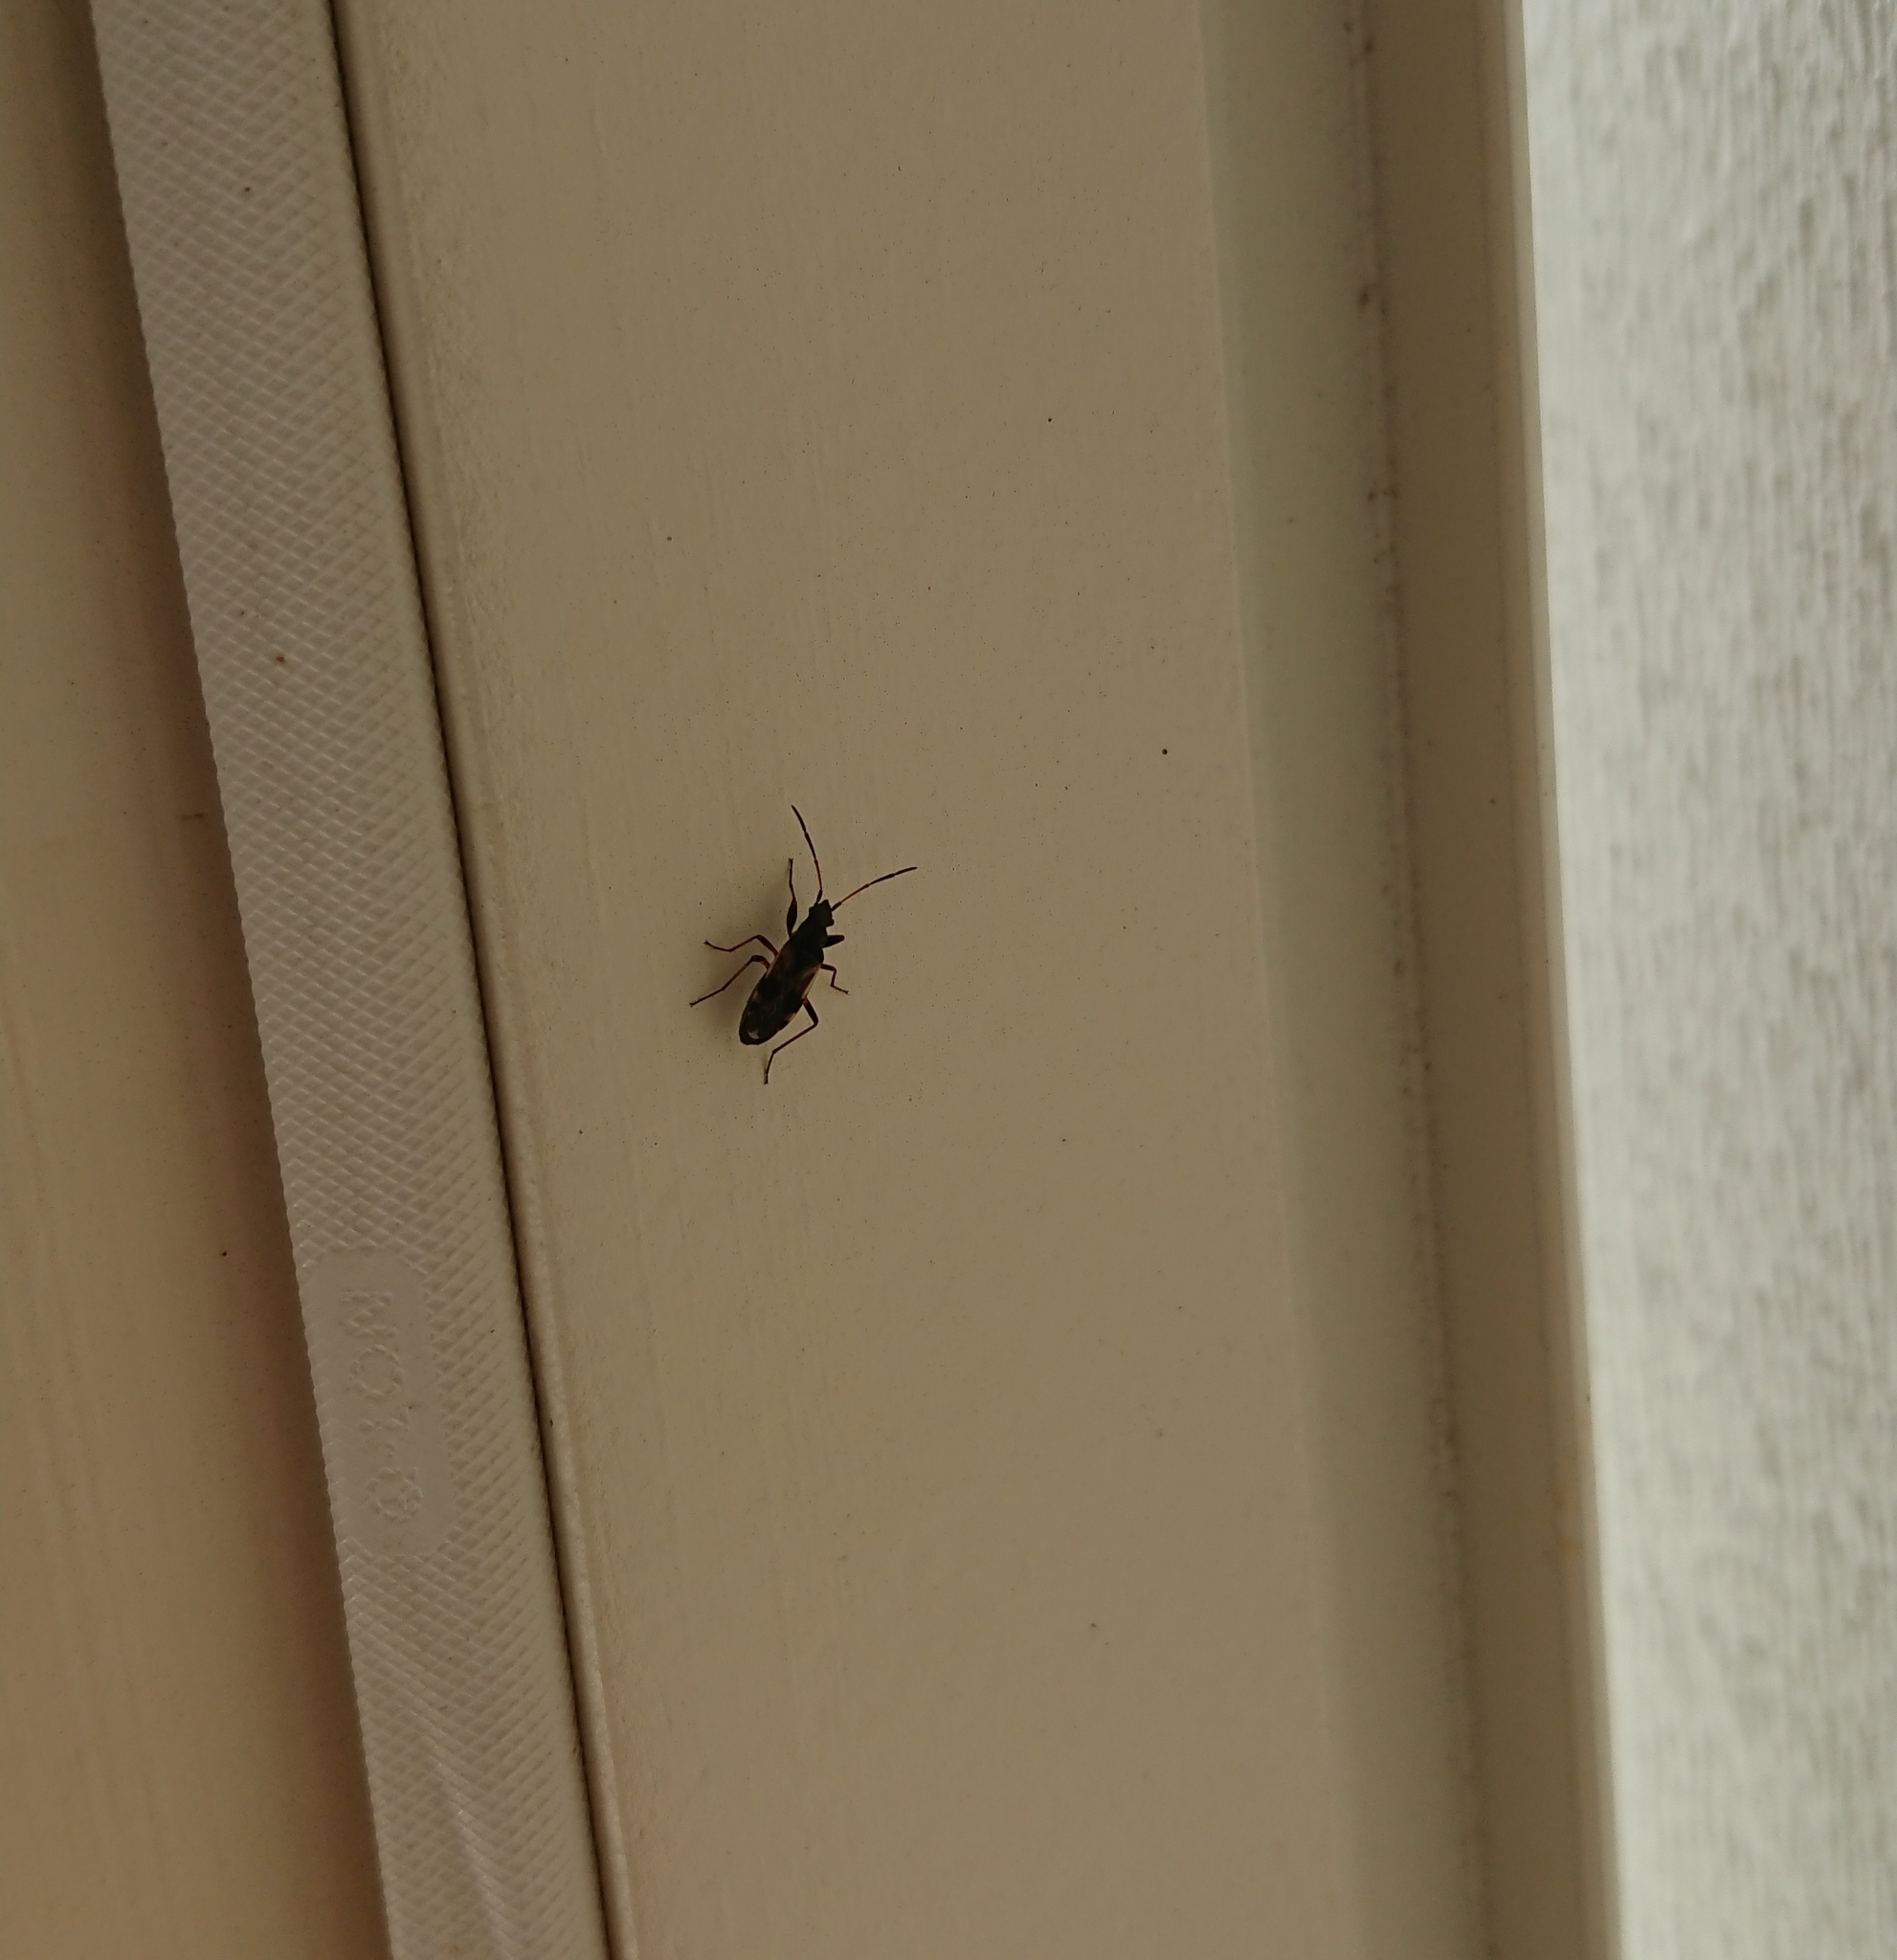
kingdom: Animalia
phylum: Arthropoda
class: Insecta
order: Hemiptera
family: Rhyparochromidae
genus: Ligyrocoris
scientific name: Ligyrocoris sylvestris
